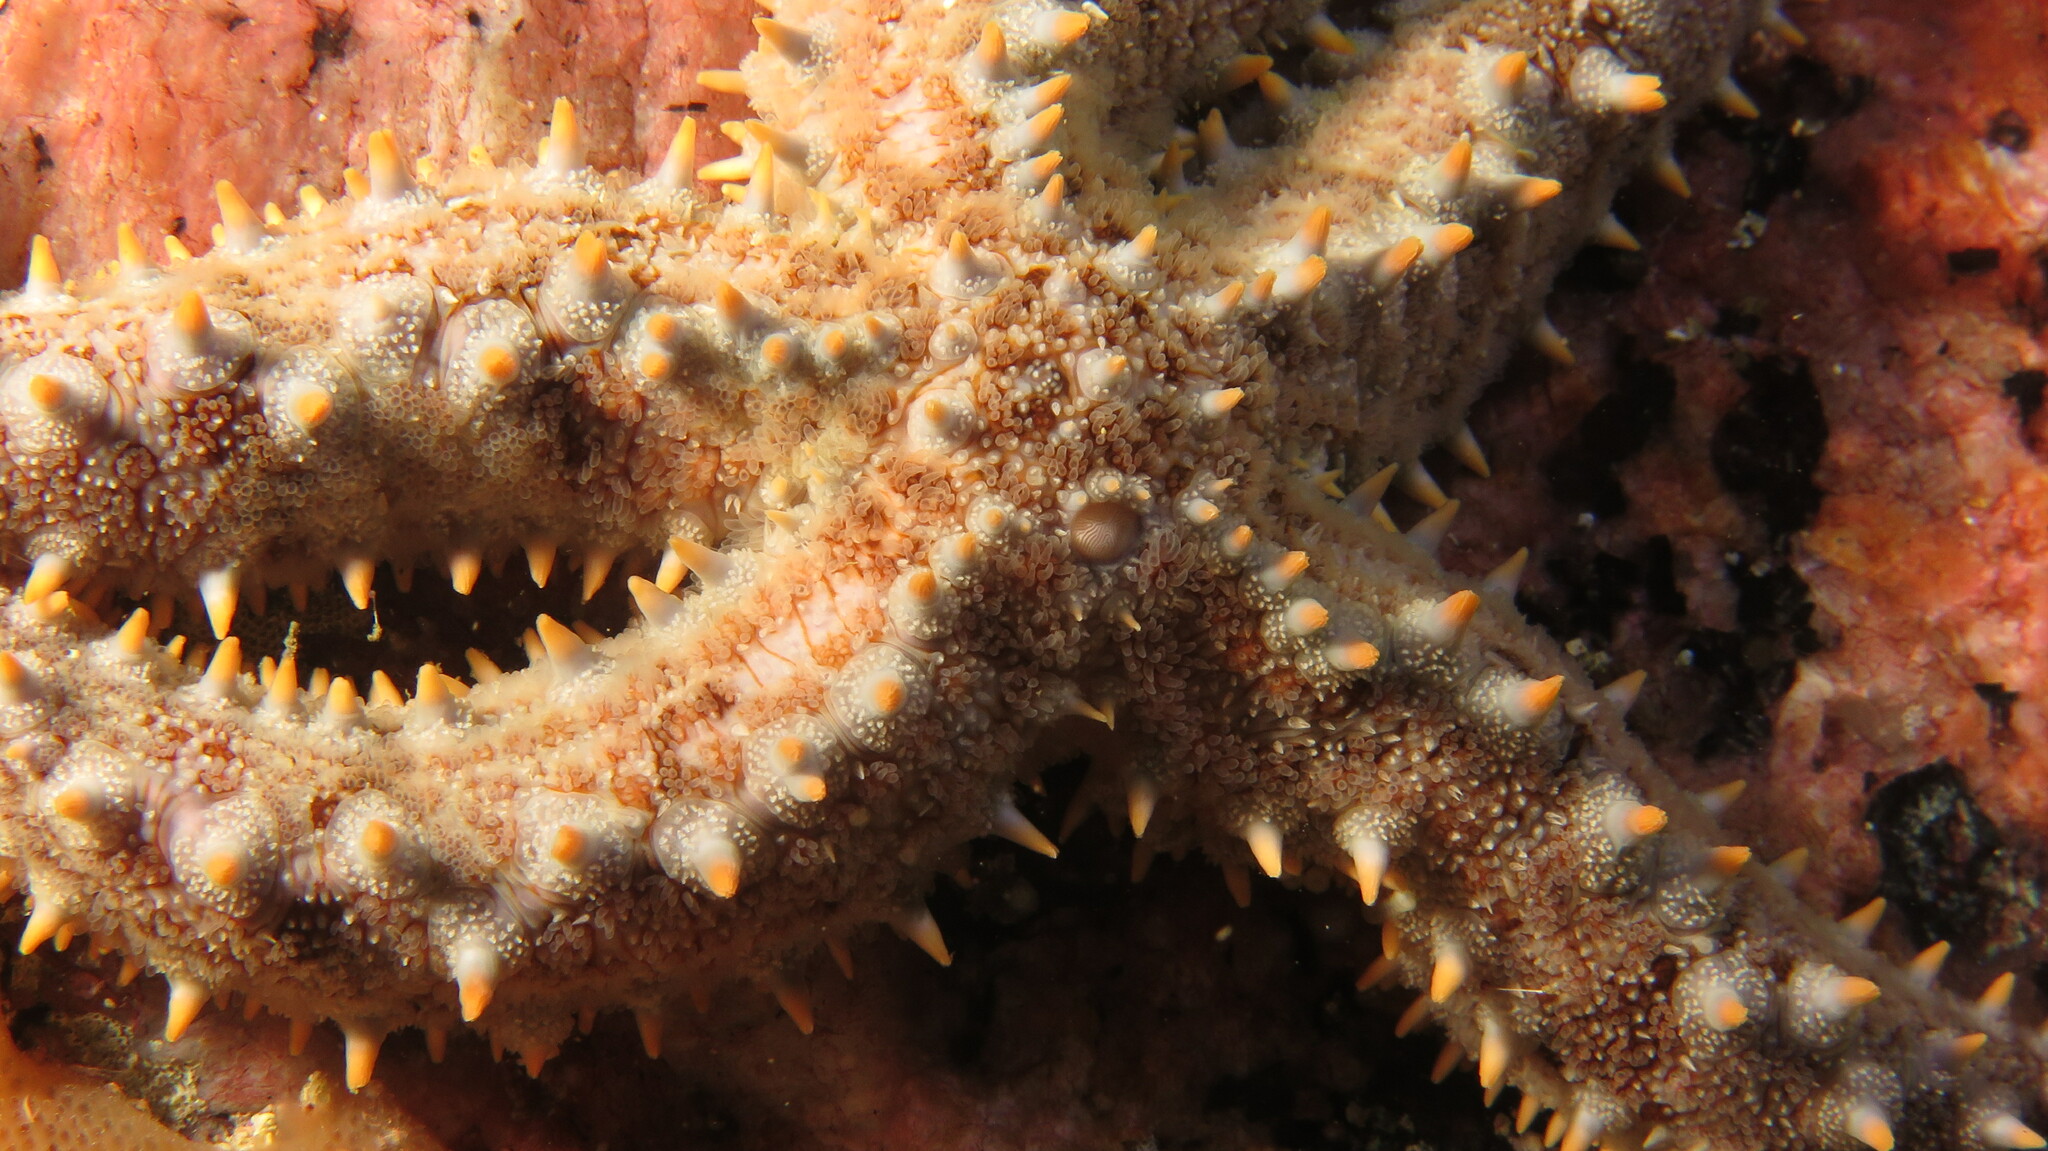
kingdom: Animalia
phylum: Echinodermata
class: Asteroidea
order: Forcipulatida
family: Asteriidae
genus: Marthasterias
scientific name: Marthasterias africana
